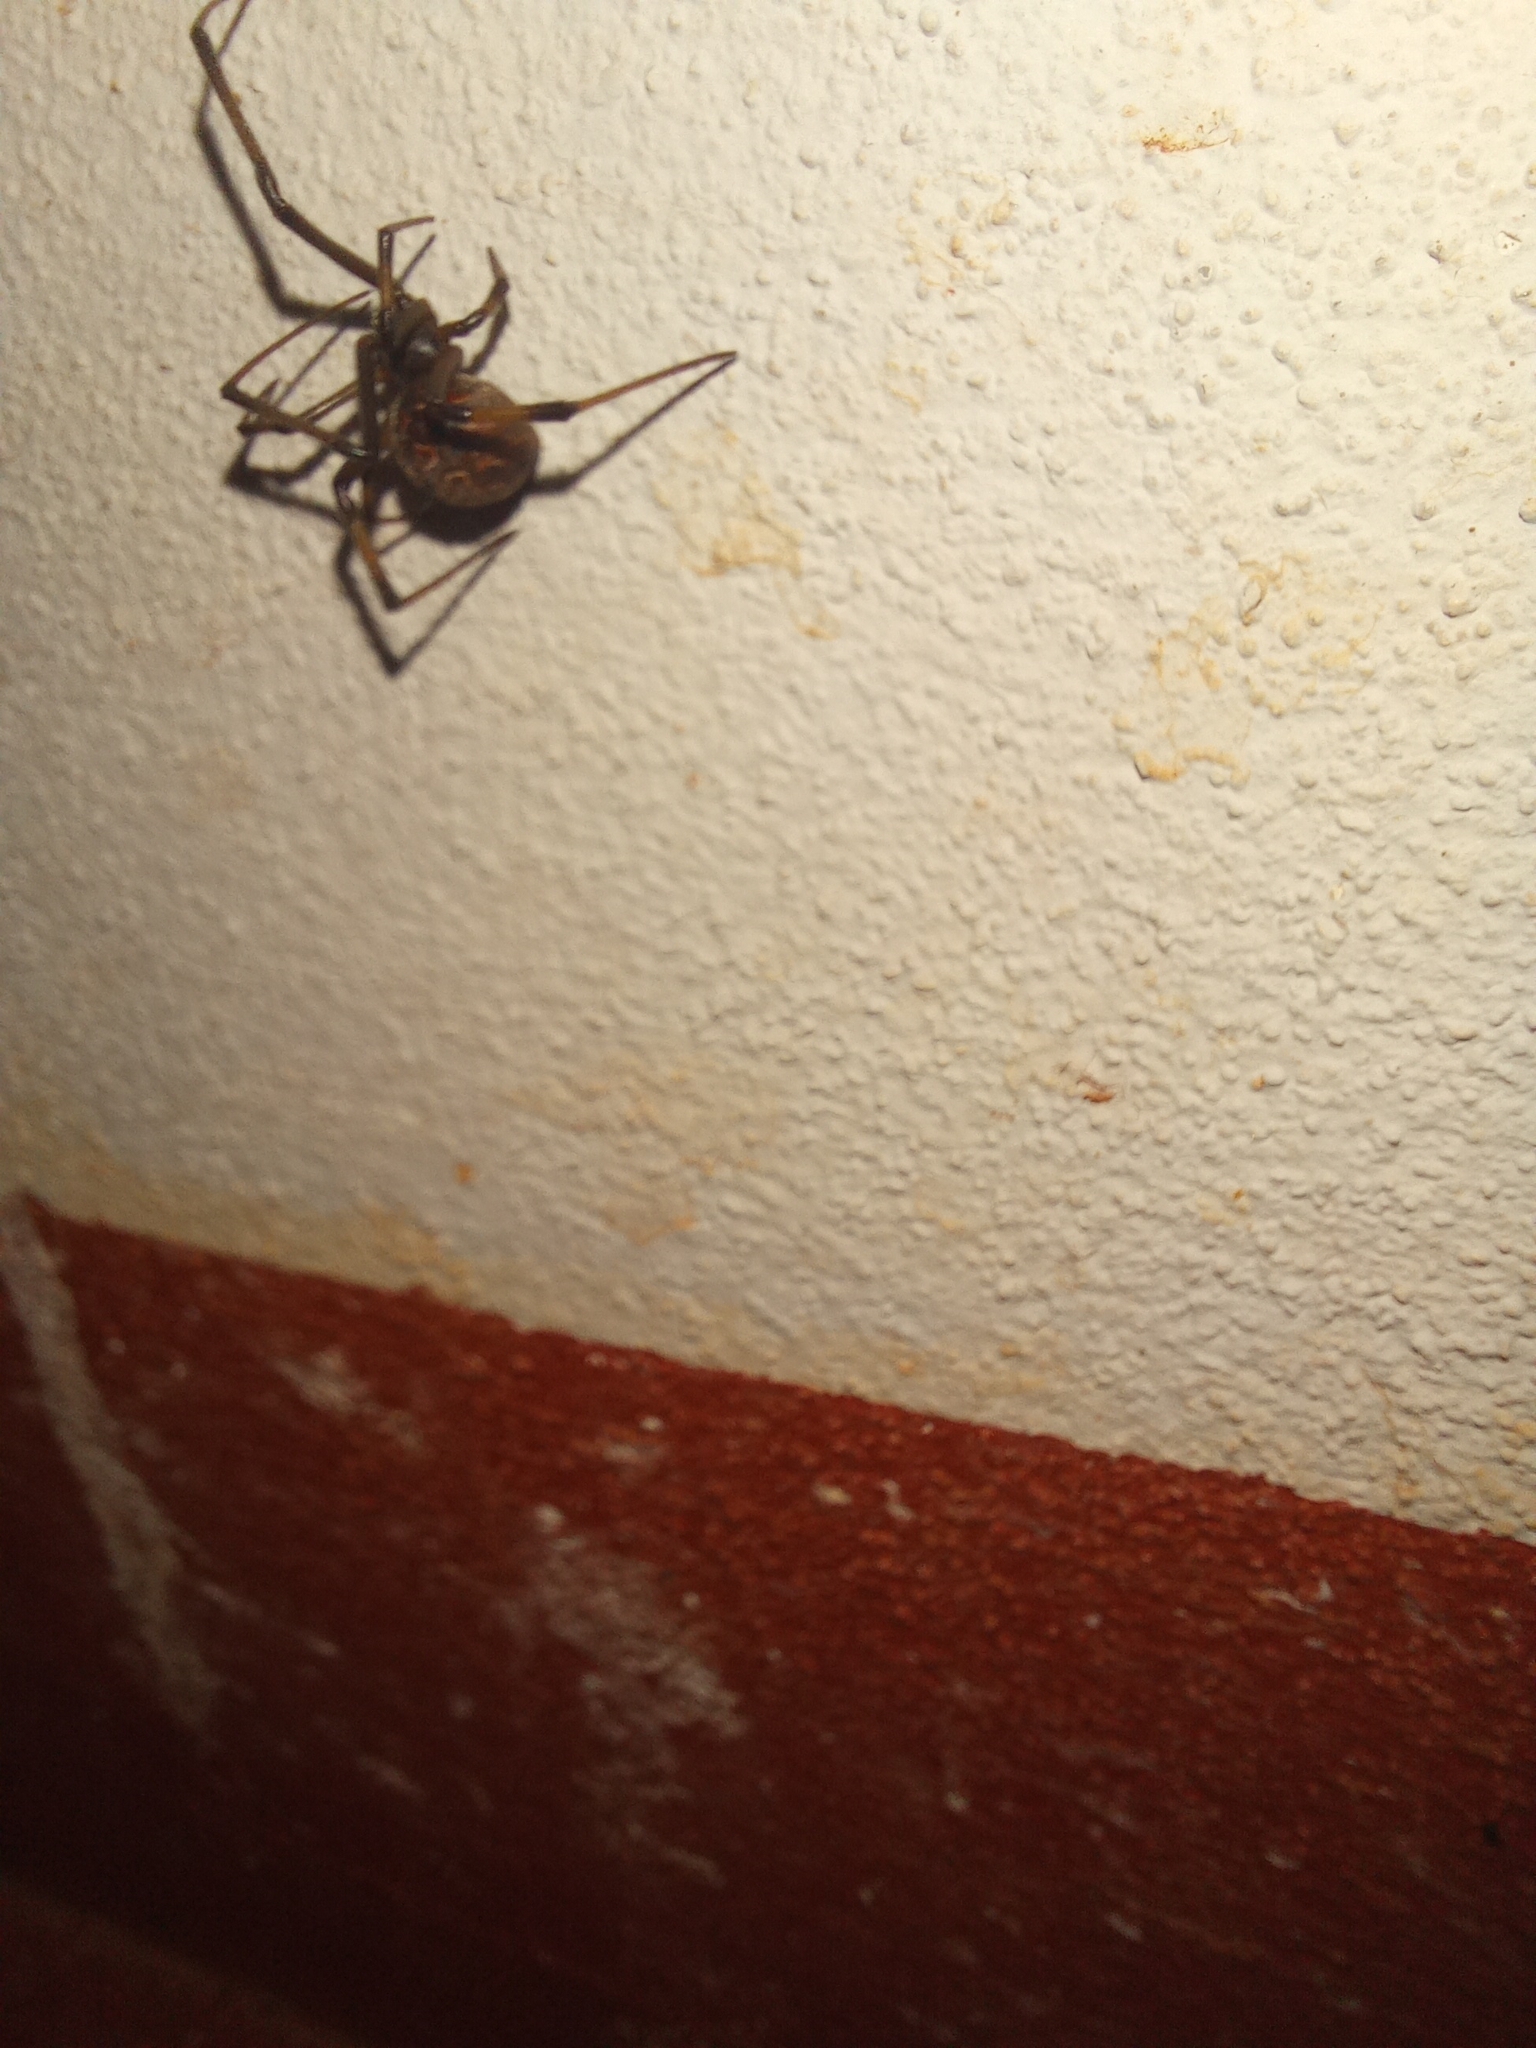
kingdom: Animalia
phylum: Arthropoda
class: Arachnida
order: Araneae
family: Theridiidae
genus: Latrodectus
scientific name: Latrodectus geometricus
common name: Brown widow spider
